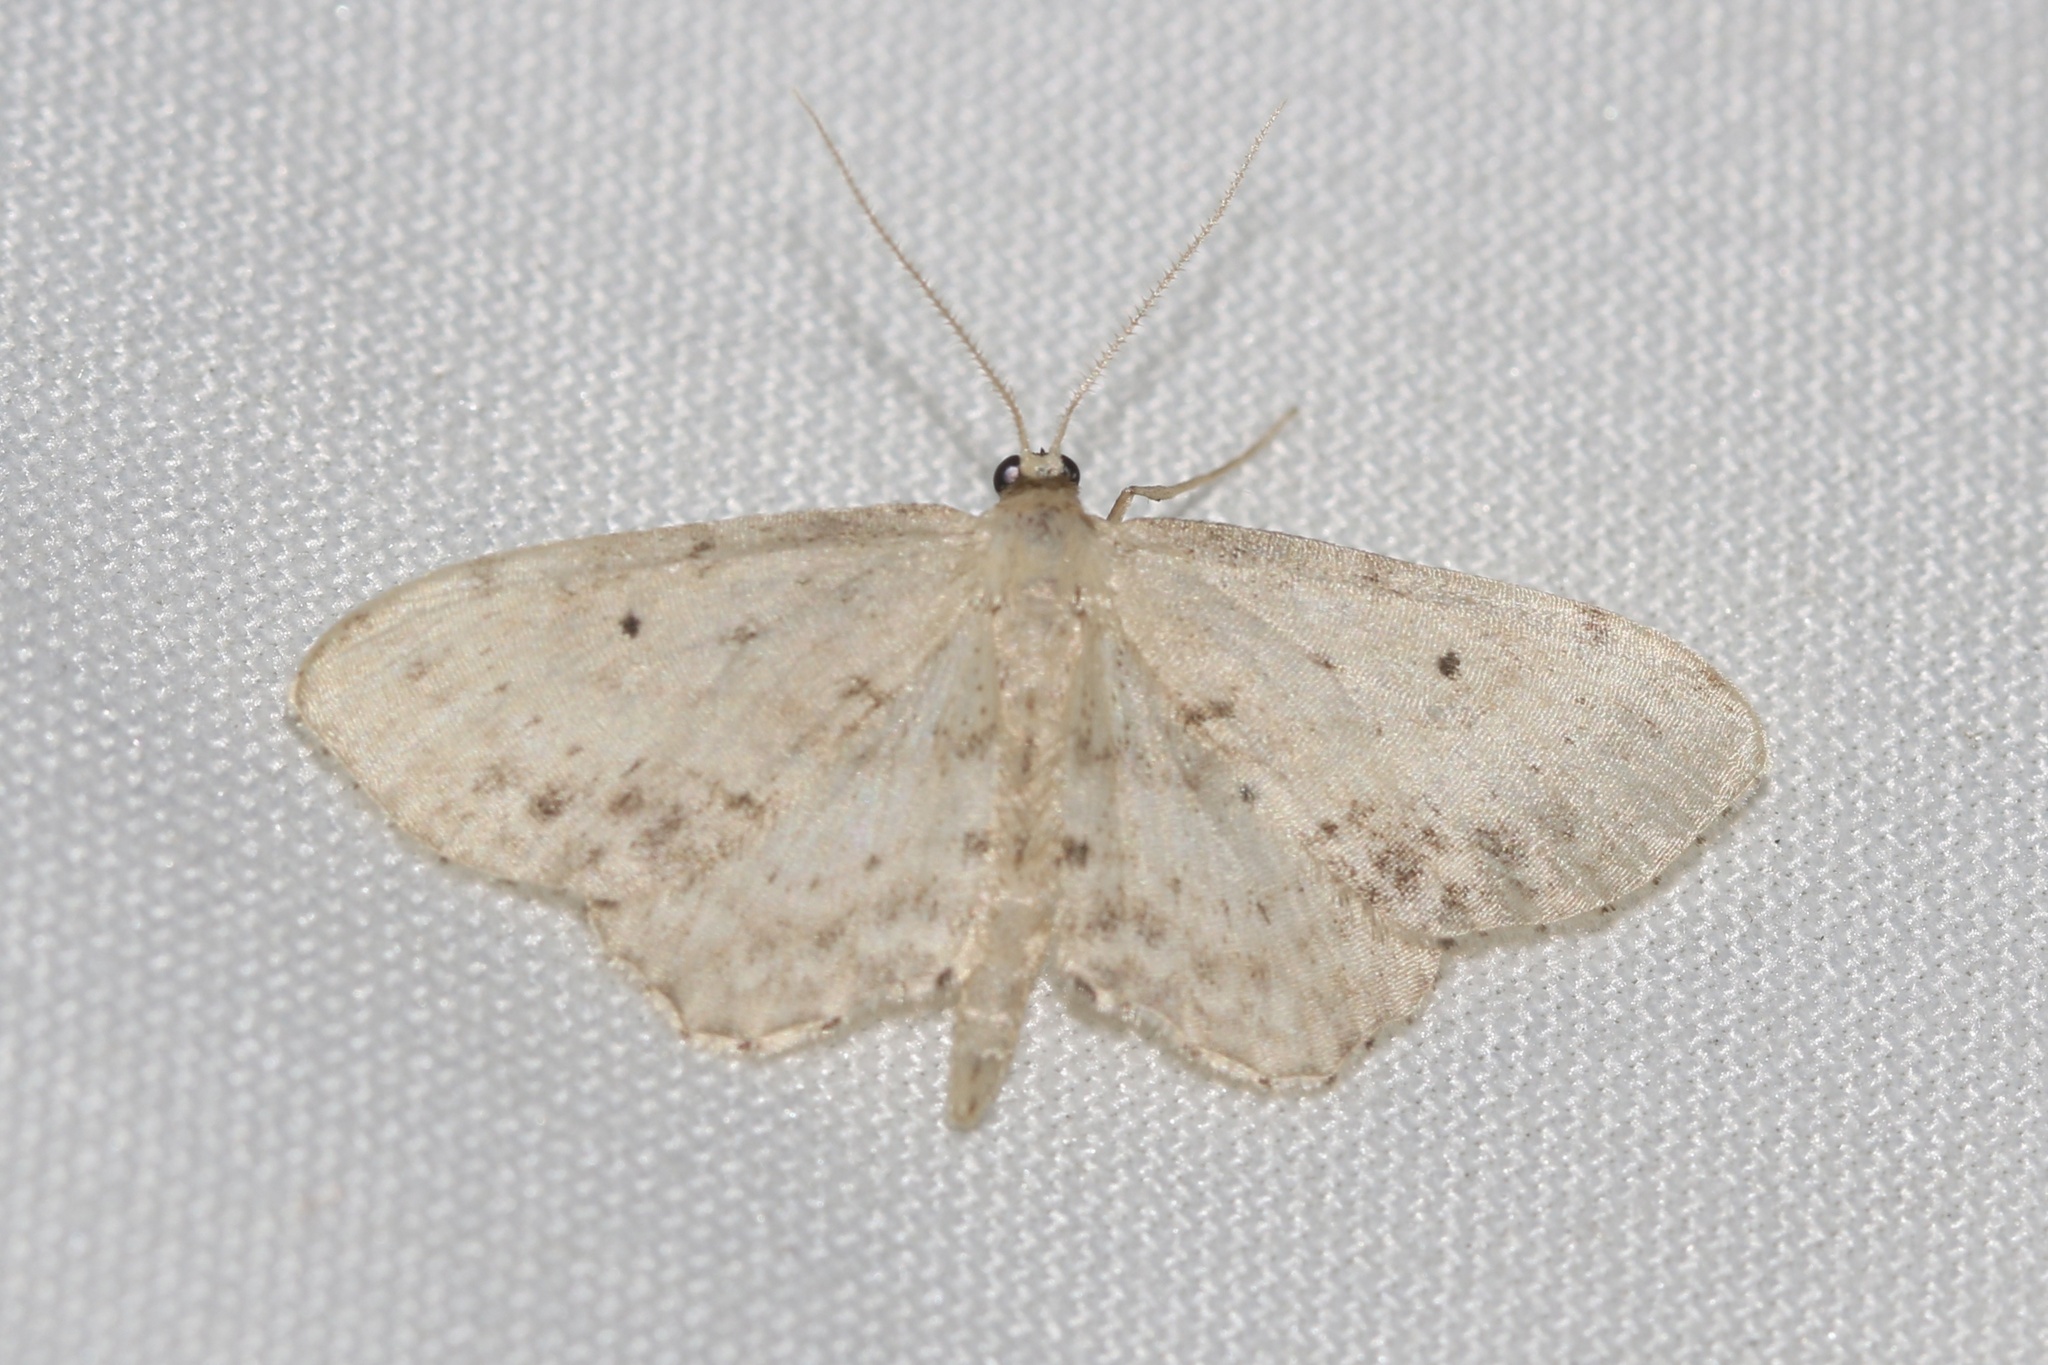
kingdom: Animalia
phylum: Arthropoda
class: Insecta
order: Lepidoptera
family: Geometridae
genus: Idaea
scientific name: Idaea dimidiata
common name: Single-dotted wave
